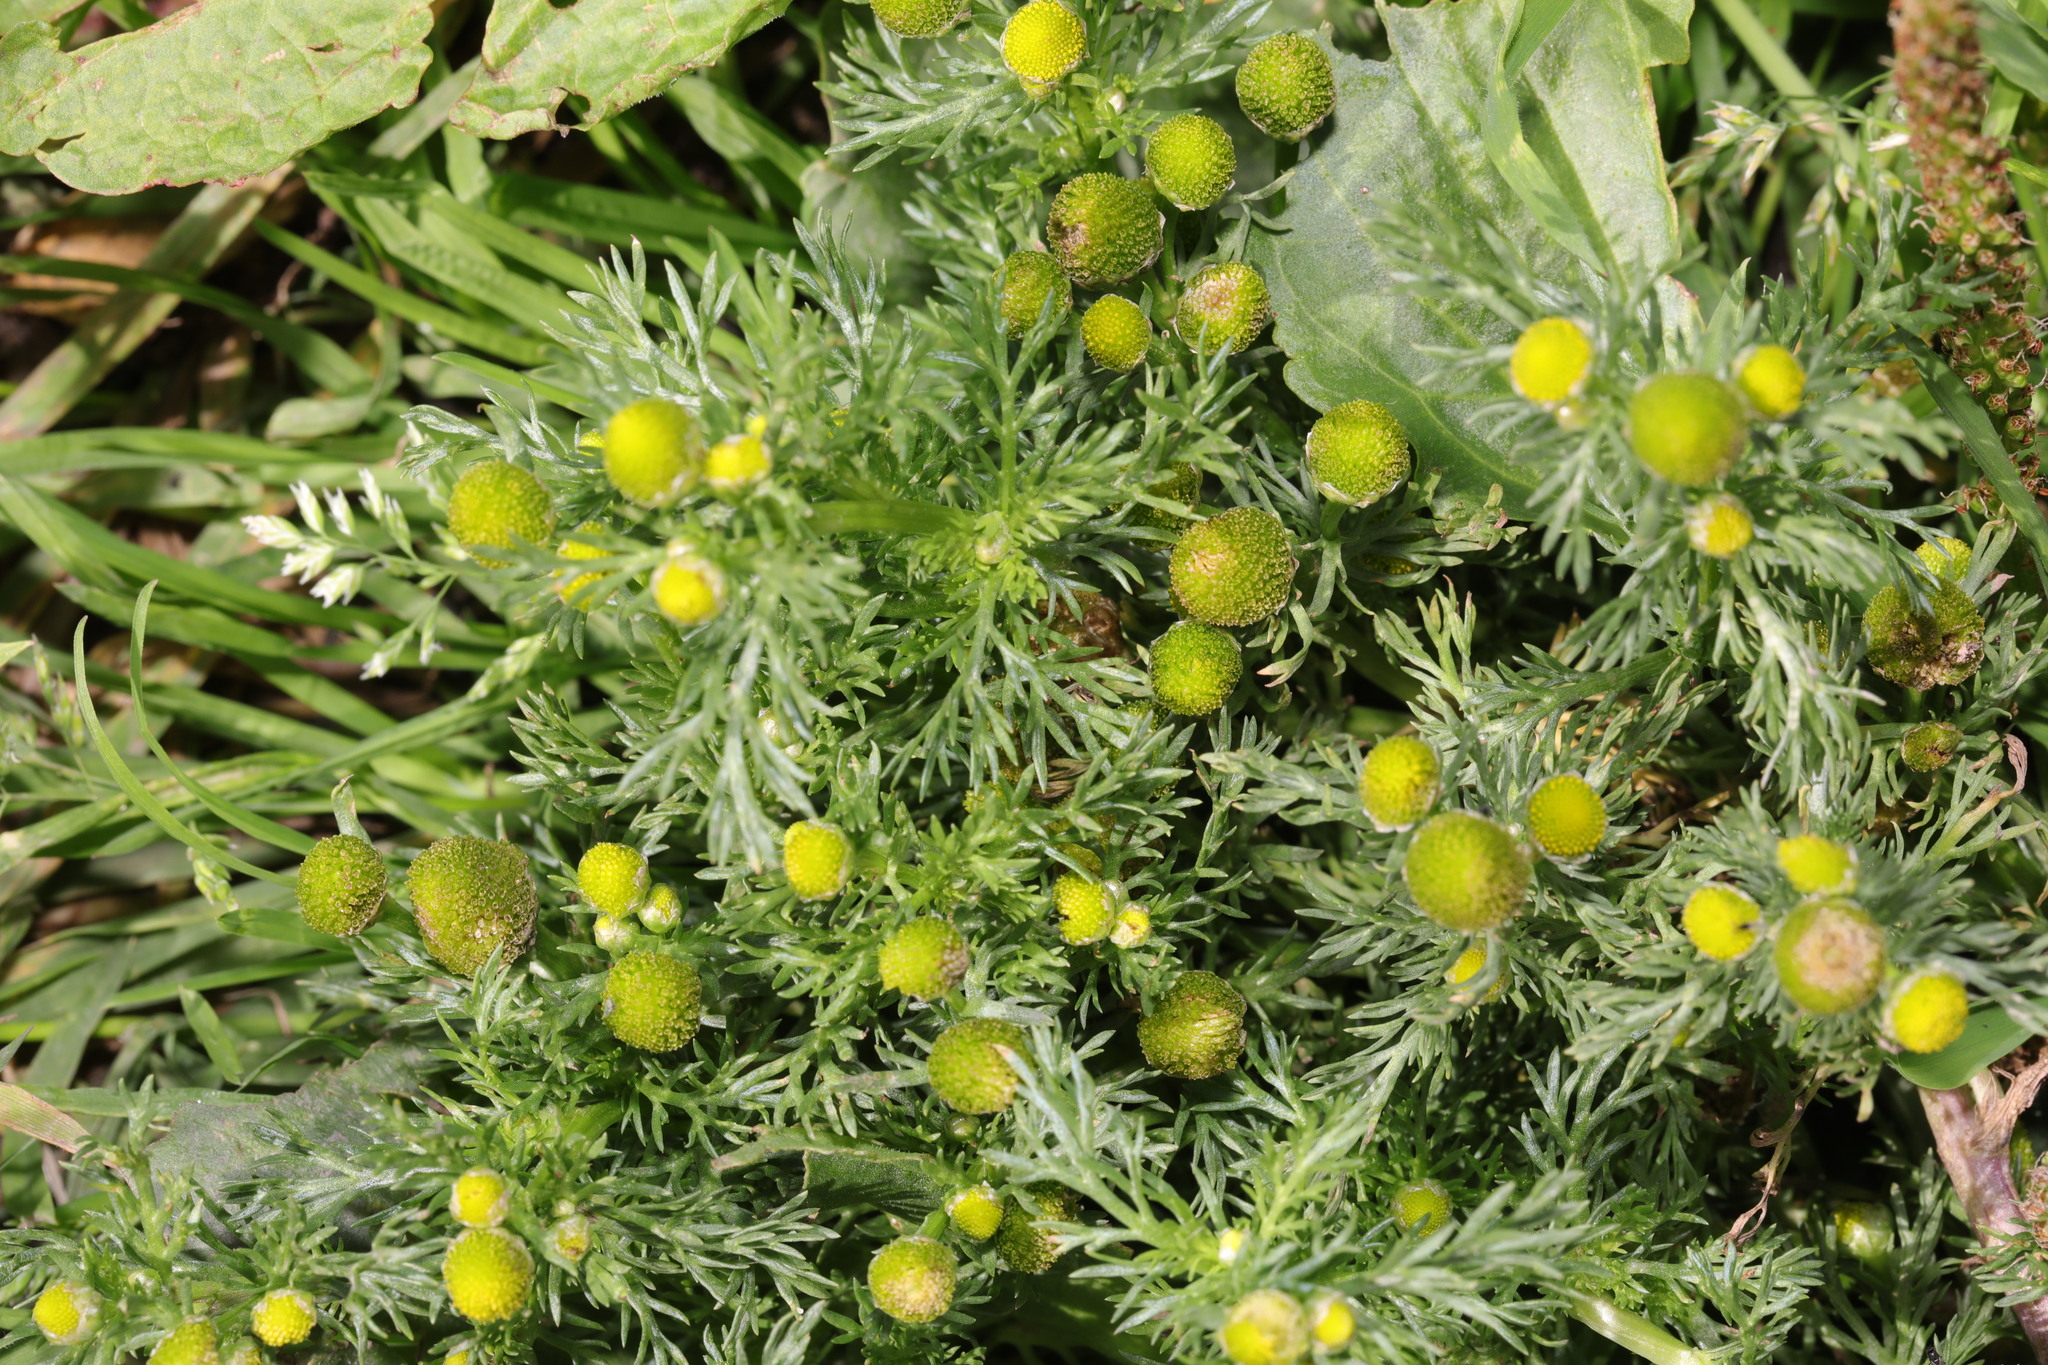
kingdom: Plantae
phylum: Tracheophyta
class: Magnoliopsida
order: Asterales
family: Asteraceae
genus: Matricaria
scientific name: Matricaria discoidea
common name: Disc mayweed
